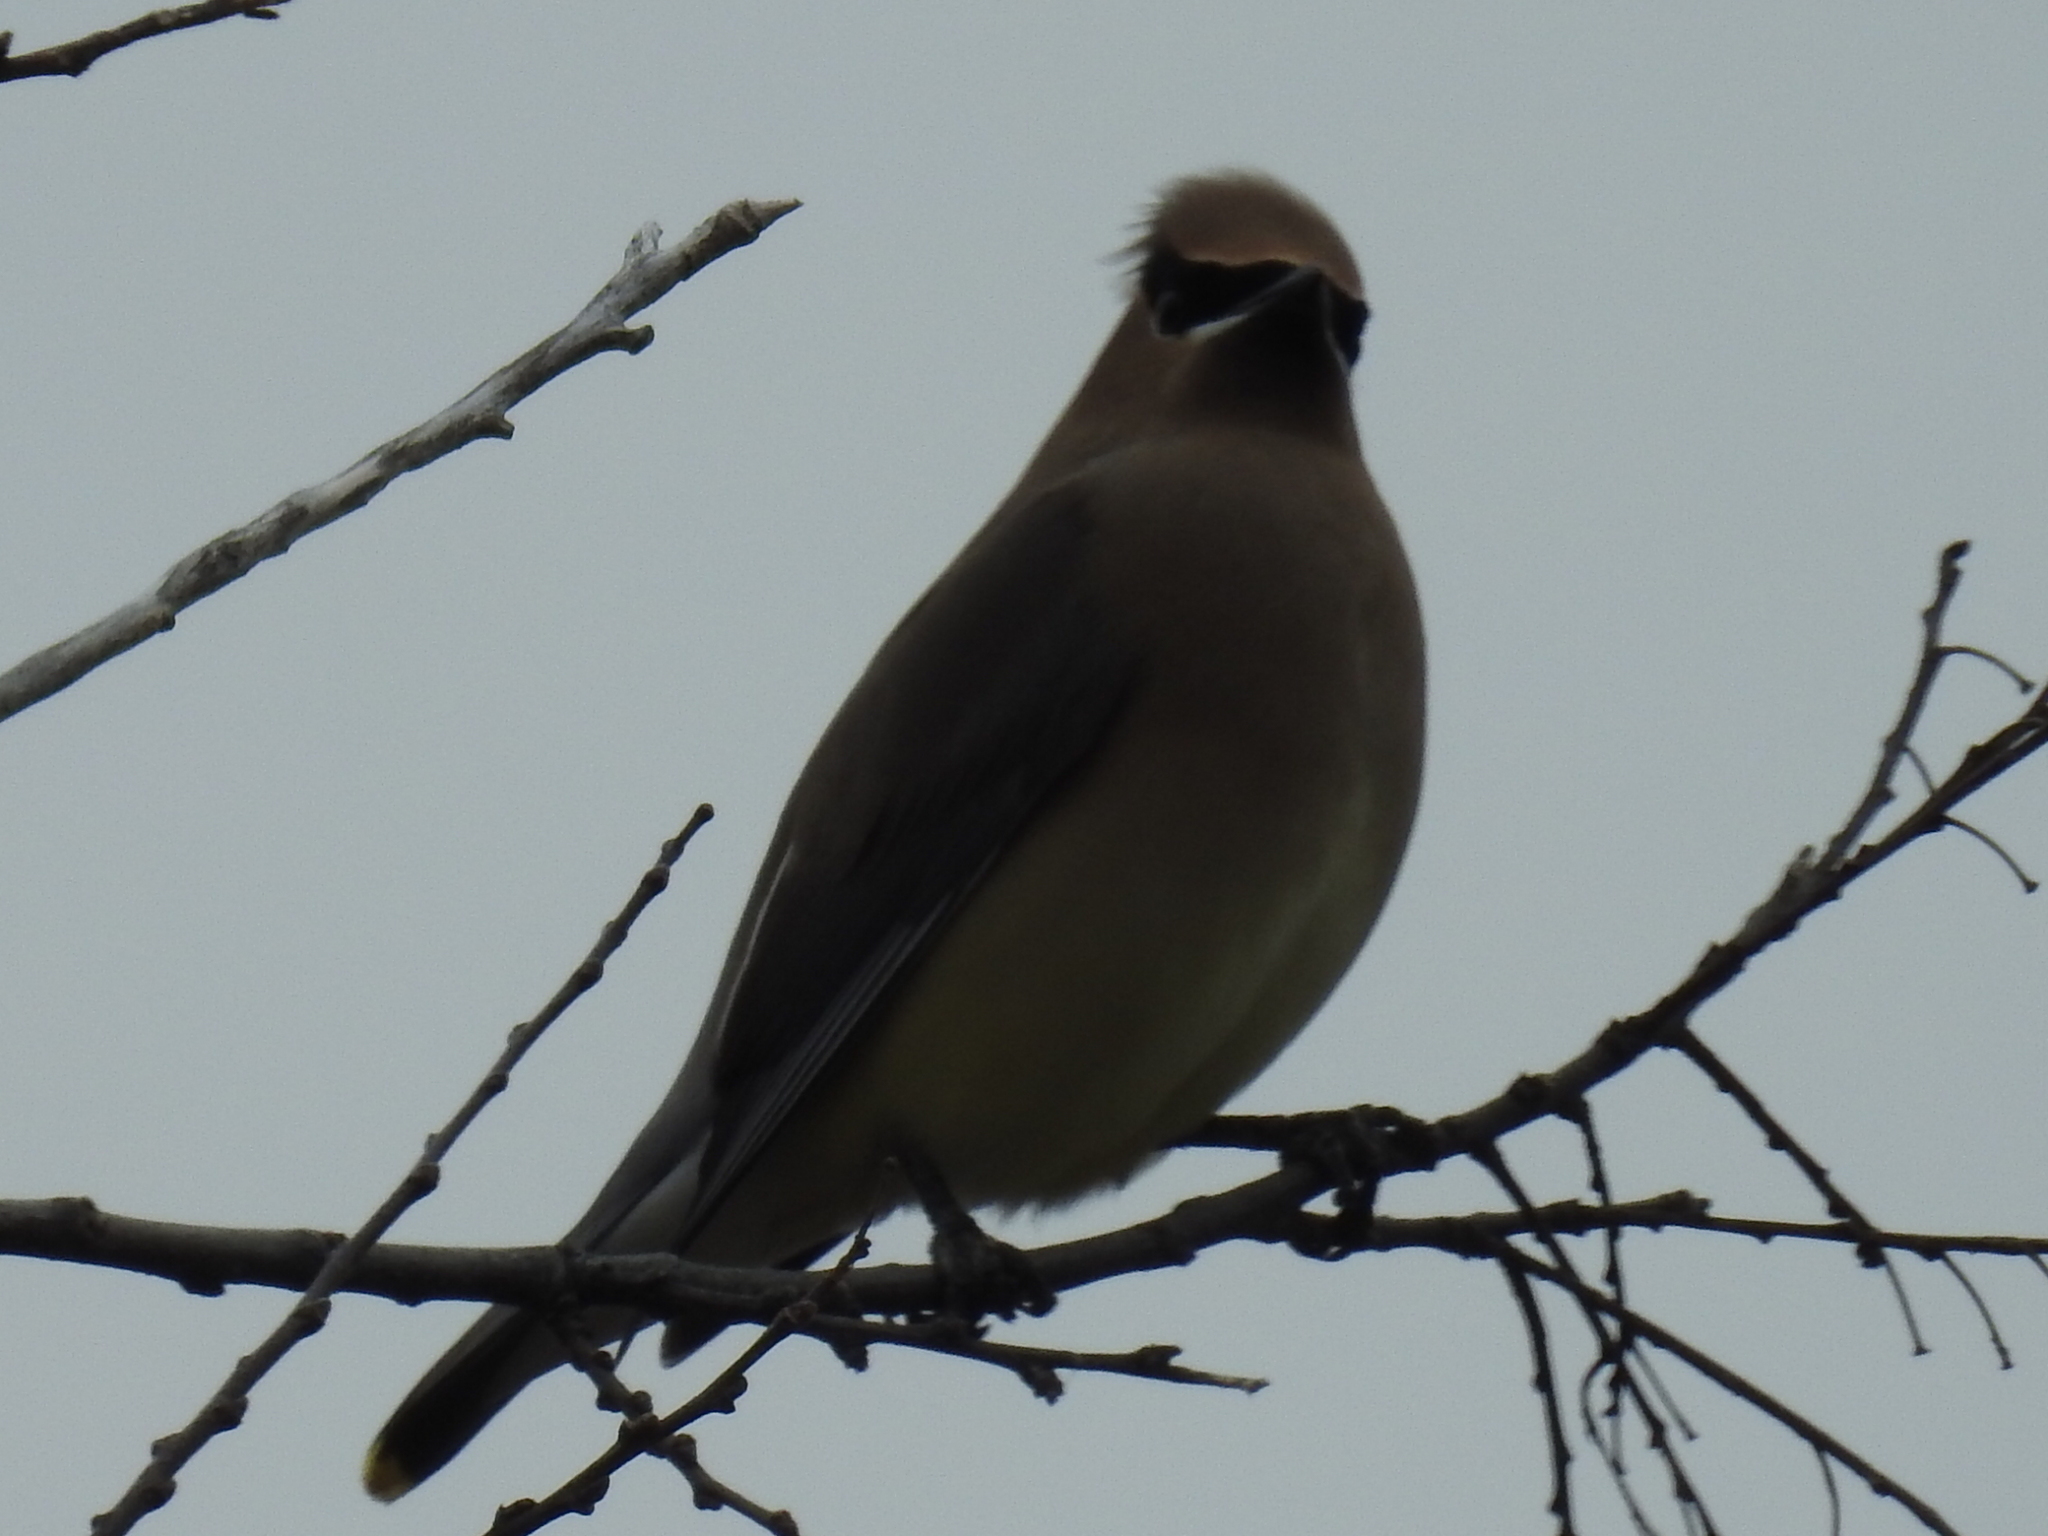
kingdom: Animalia
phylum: Chordata
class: Aves
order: Passeriformes
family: Bombycillidae
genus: Bombycilla
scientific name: Bombycilla cedrorum
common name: Cedar waxwing
